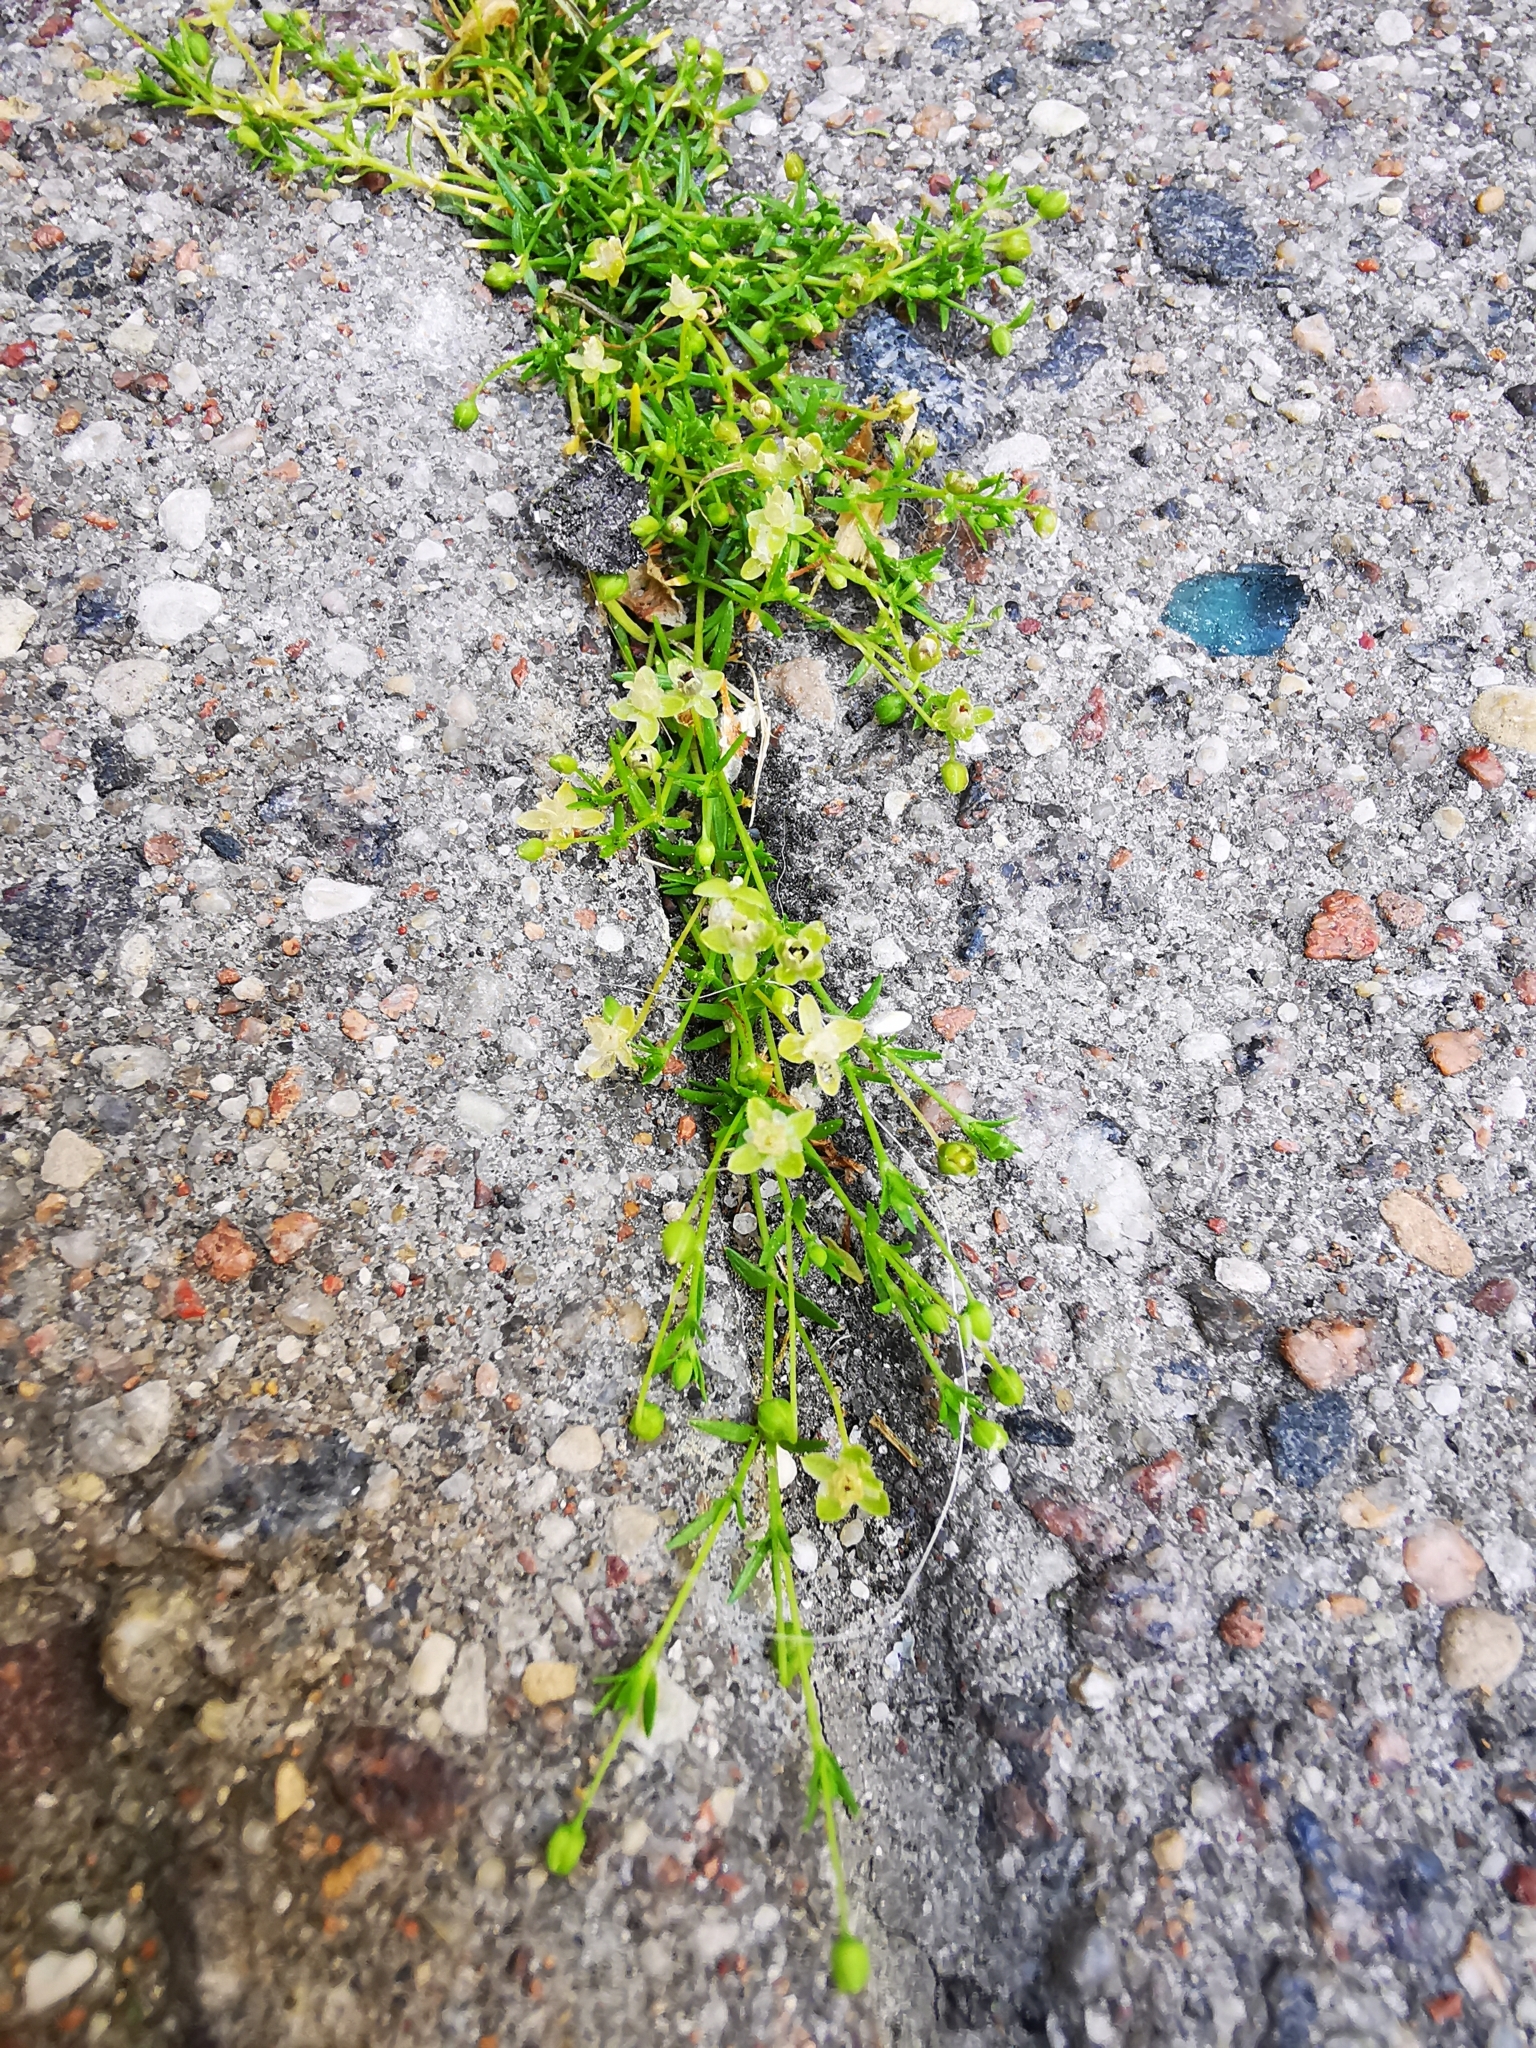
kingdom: Plantae
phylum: Tracheophyta
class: Magnoliopsida
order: Caryophyllales
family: Caryophyllaceae
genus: Sagina
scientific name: Sagina procumbens
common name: Procumbent pearlwort
